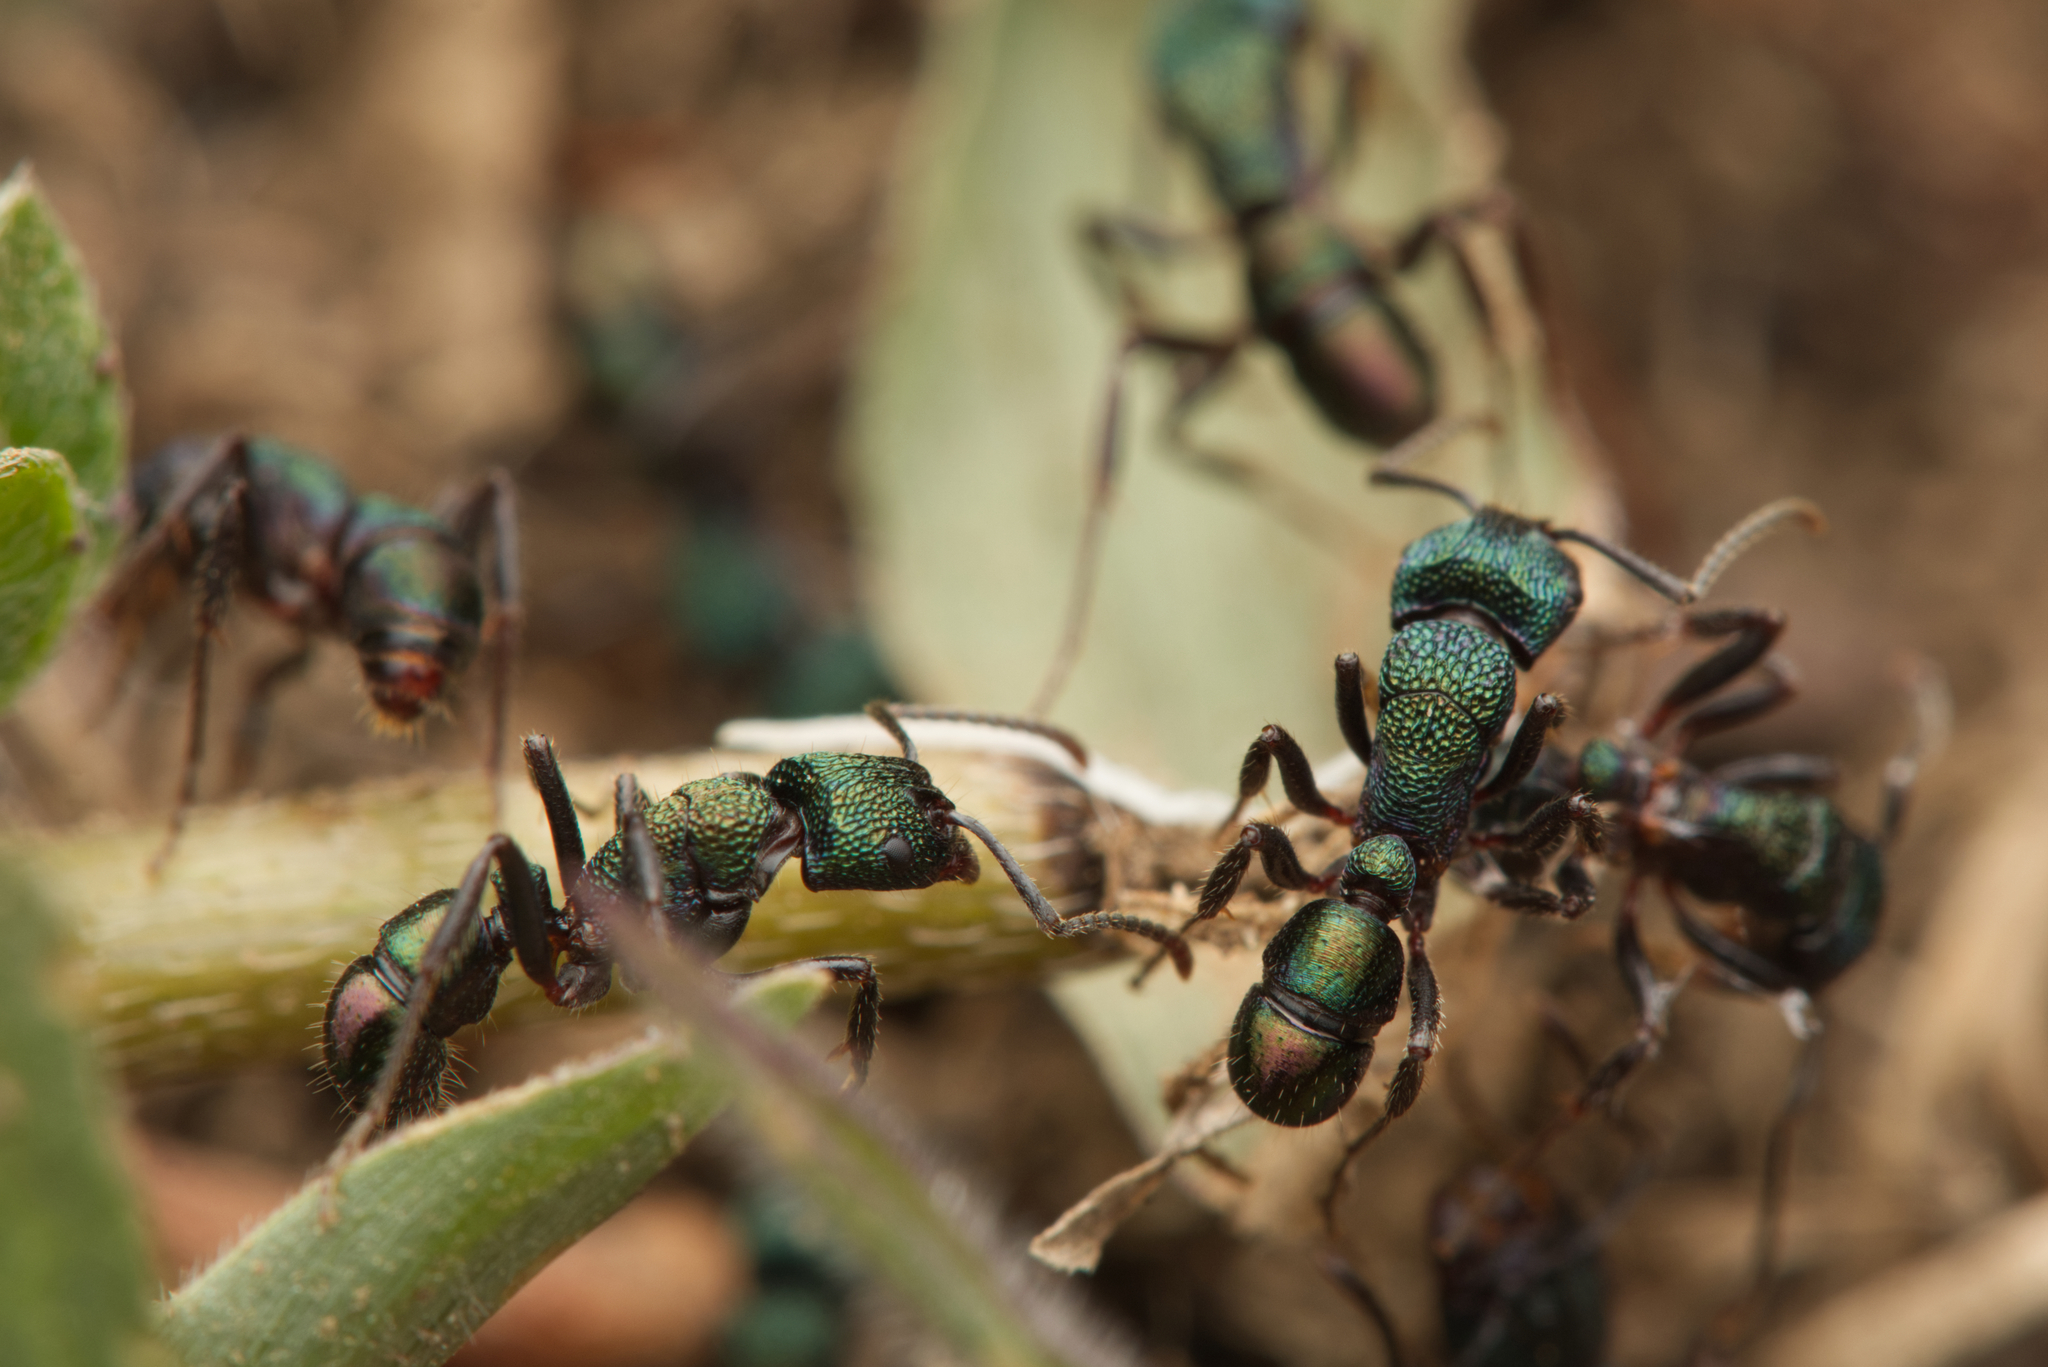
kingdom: Animalia
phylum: Arthropoda
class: Insecta
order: Hymenoptera
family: Formicidae
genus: Rhytidoponera
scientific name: Rhytidoponera metallica
